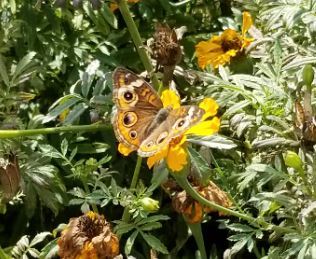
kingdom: Animalia
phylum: Arthropoda
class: Insecta
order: Lepidoptera
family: Nymphalidae
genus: Junonia
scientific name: Junonia coenia
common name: Common buckeye
